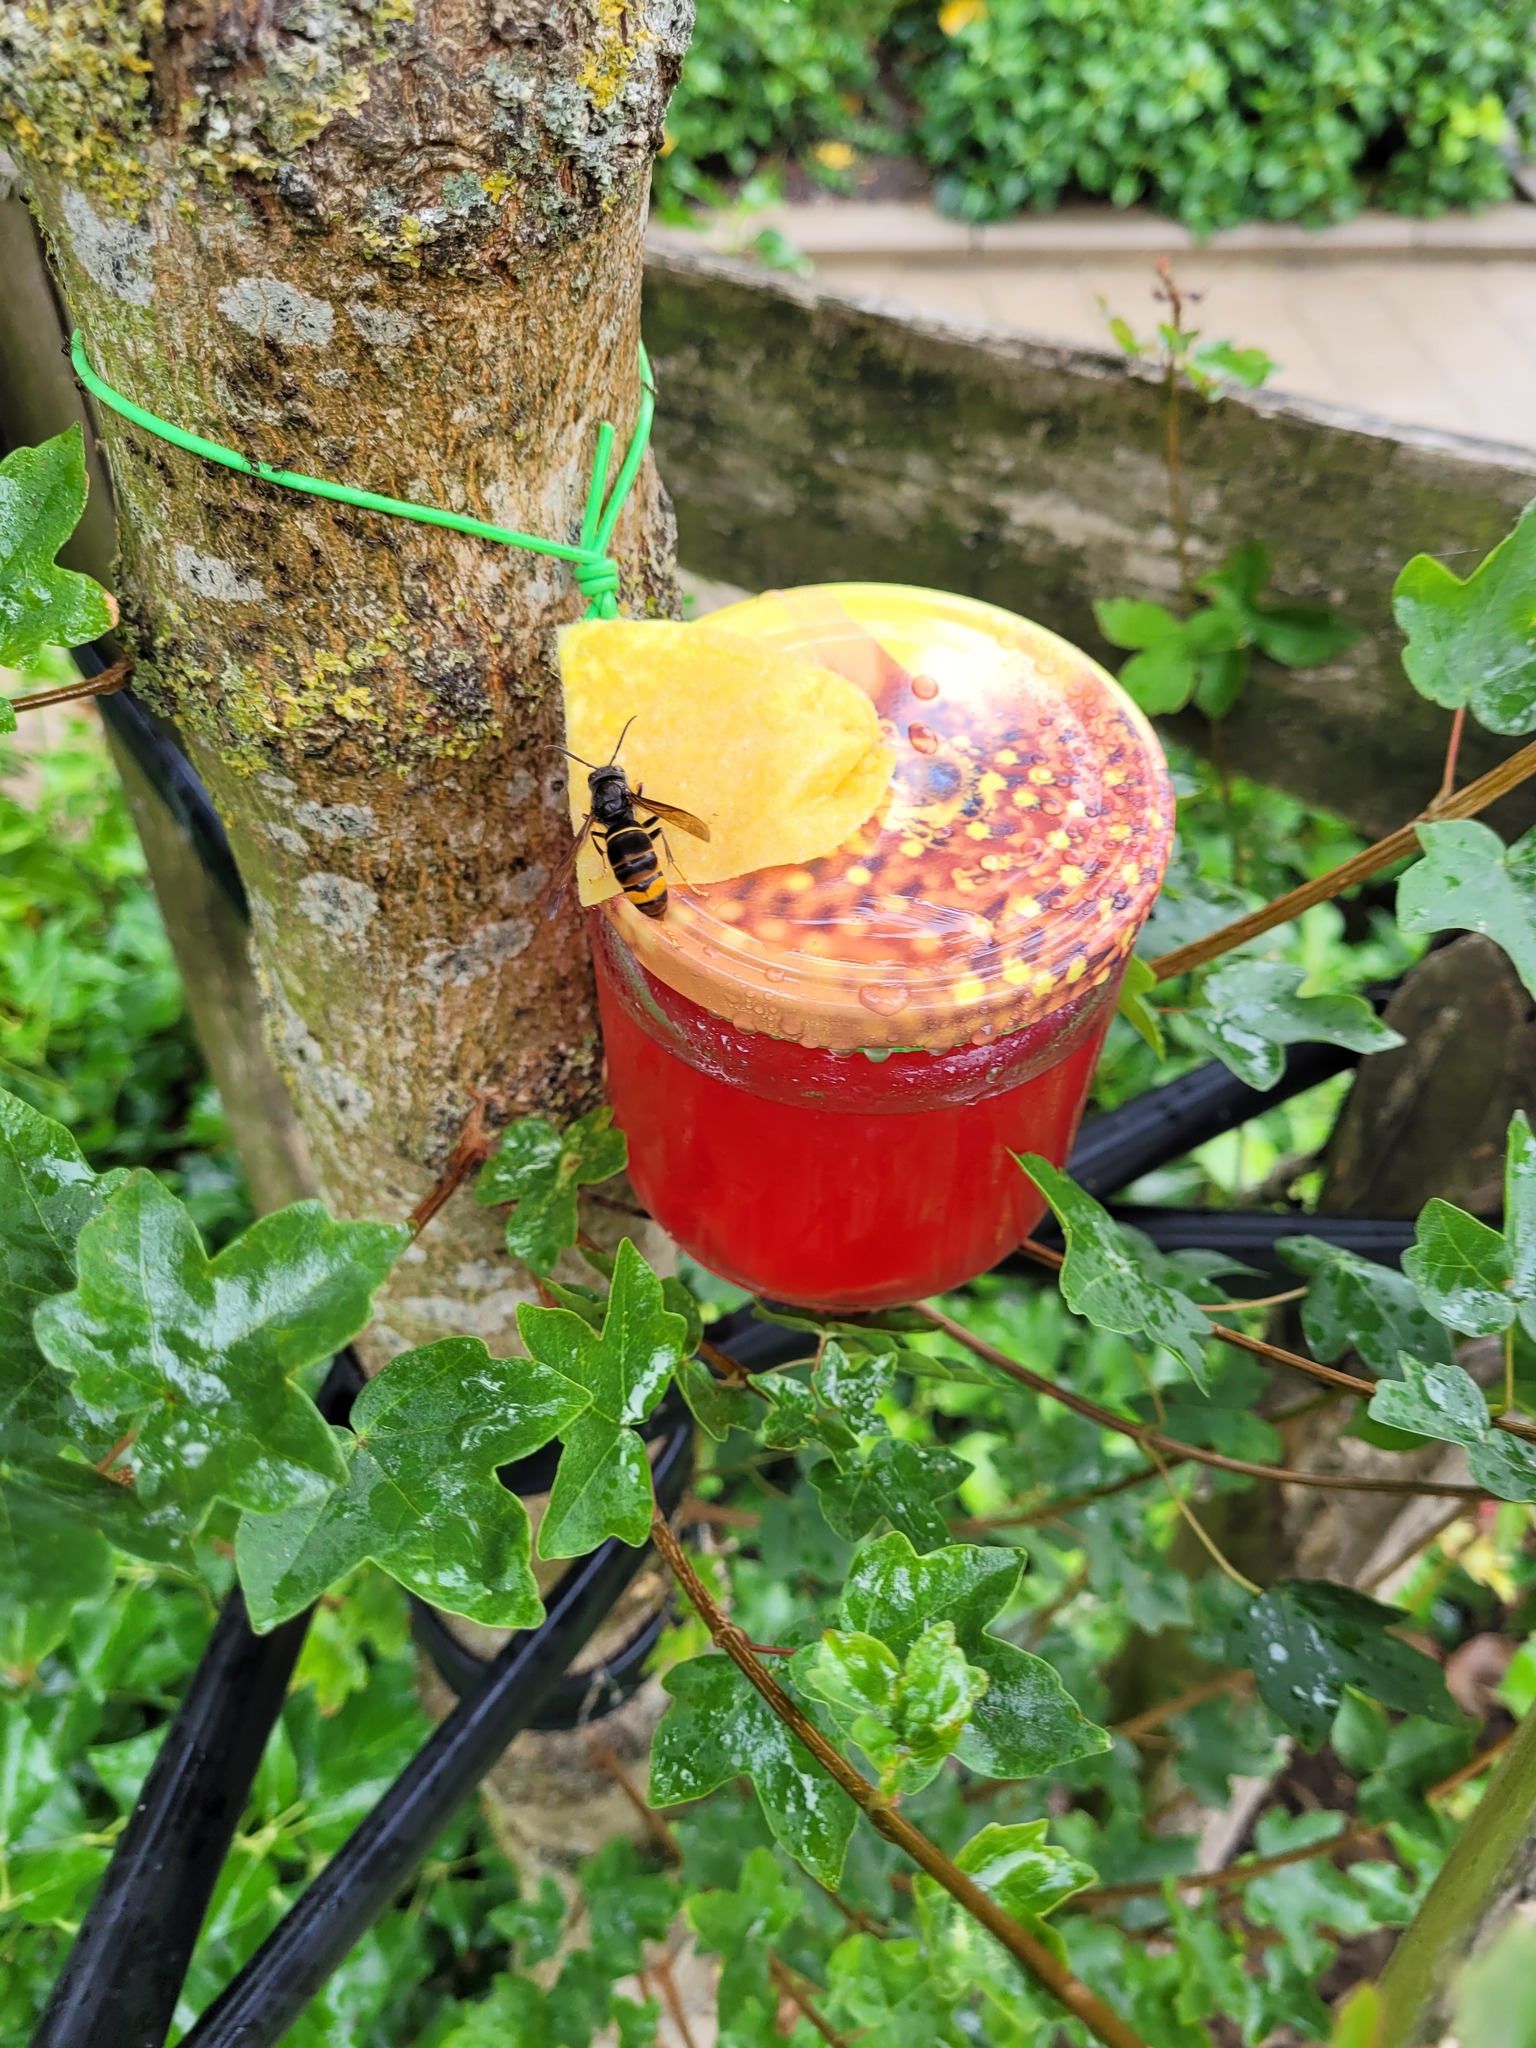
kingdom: Animalia
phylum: Arthropoda
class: Insecta
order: Hymenoptera
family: Vespidae
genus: Vespa
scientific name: Vespa velutina
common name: Asian hornet
